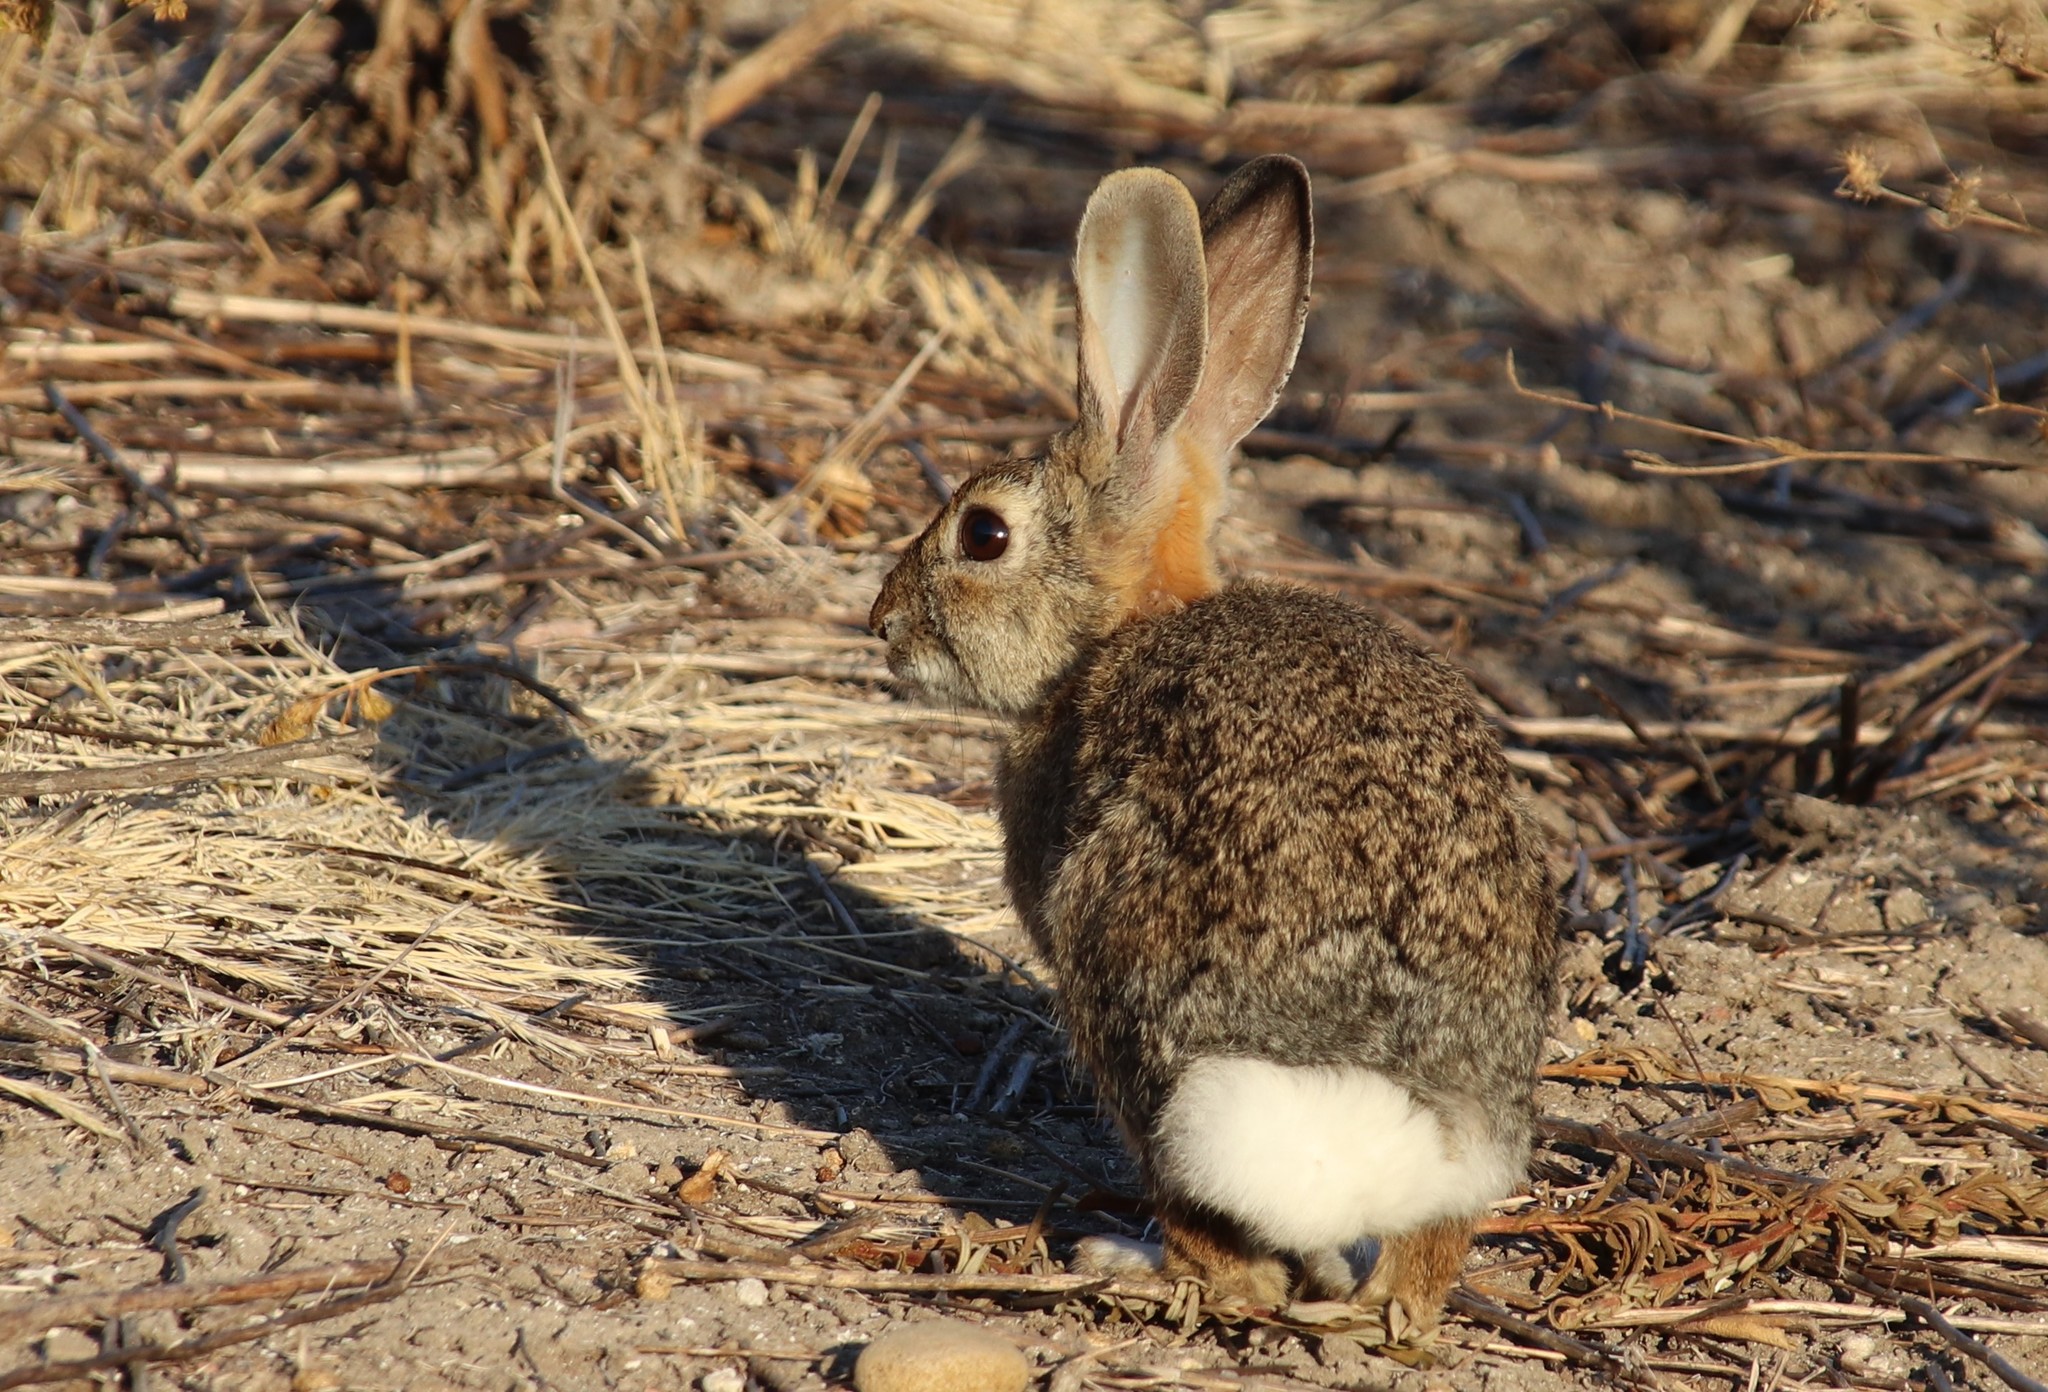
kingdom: Animalia
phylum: Chordata
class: Mammalia
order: Lagomorpha
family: Leporidae
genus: Sylvilagus
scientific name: Sylvilagus audubonii
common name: Desert cottontail
